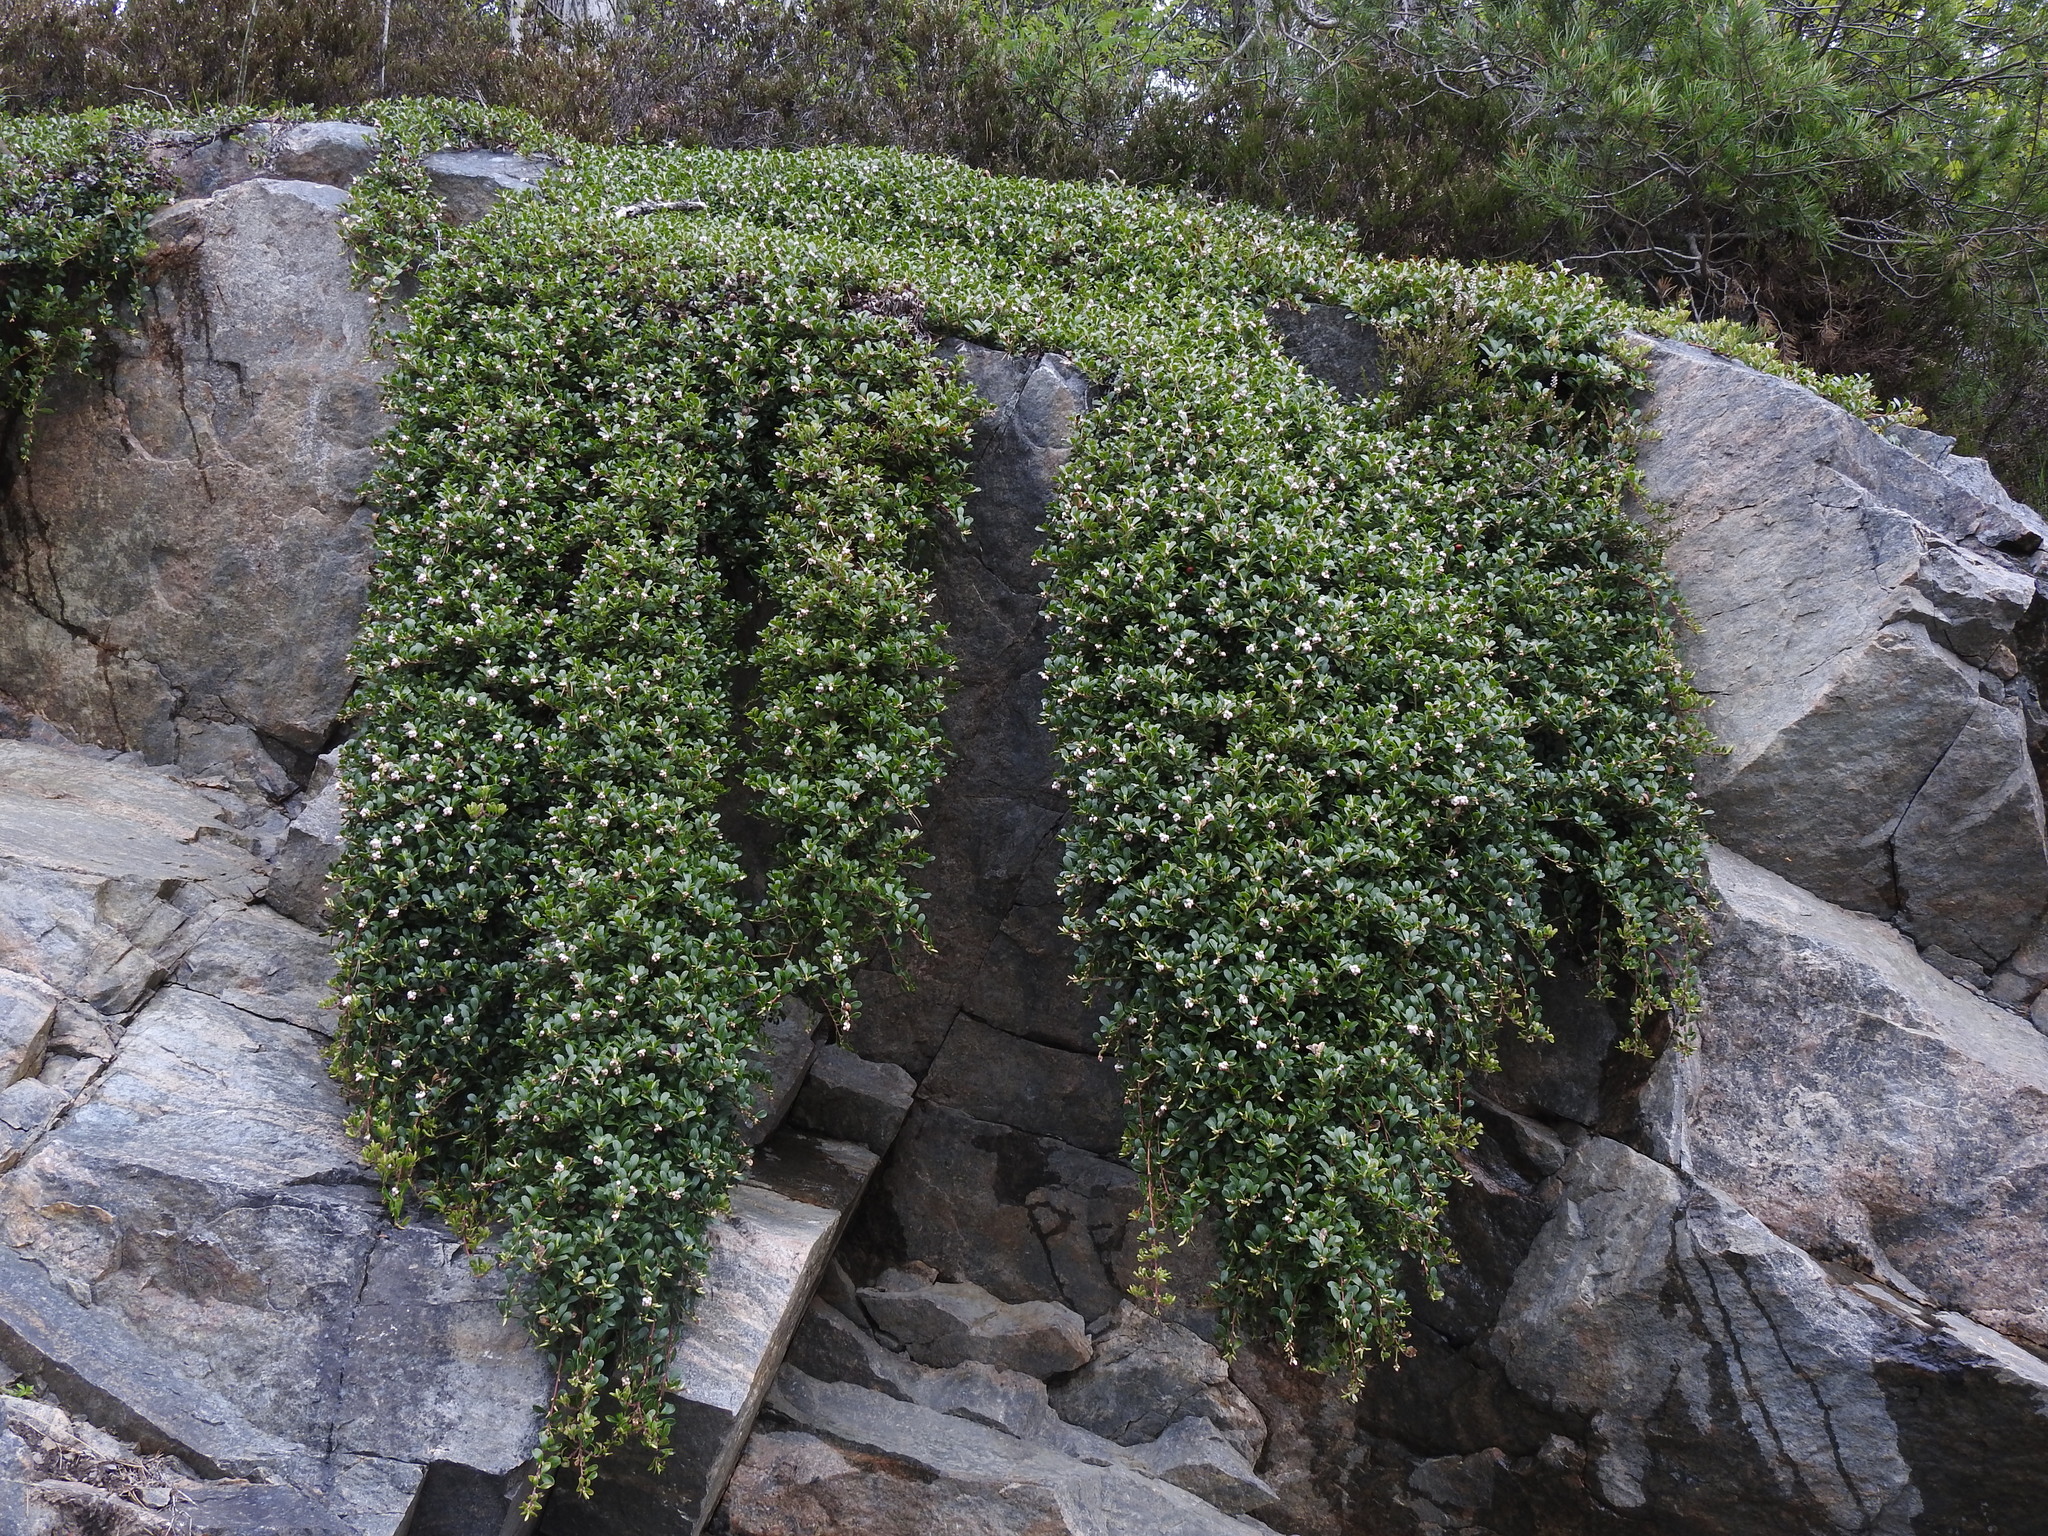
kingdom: Plantae
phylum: Tracheophyta
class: Magnoliopsida
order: Ericales
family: Ericaceae
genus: Arctostaphylos
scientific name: Arctostaphylos uva-ursi
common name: Bearberry
